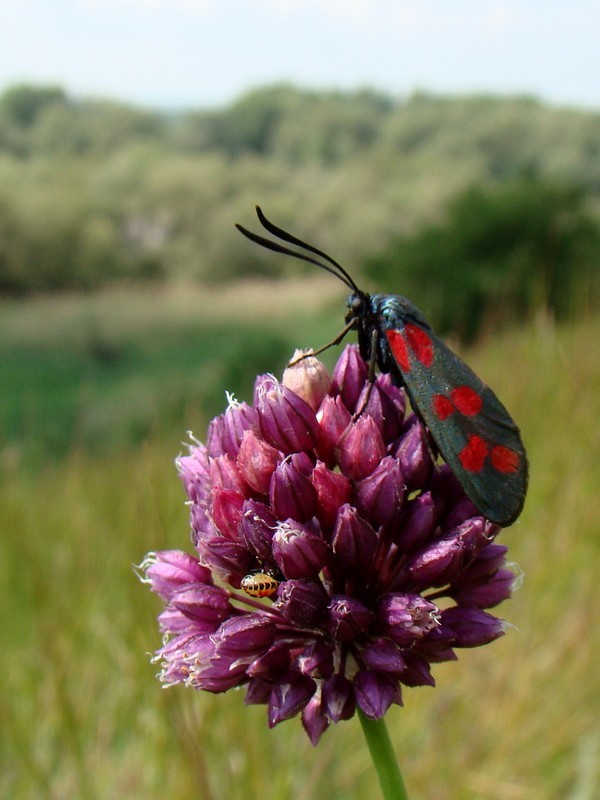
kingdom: Plantae
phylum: Tracheophyta
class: Liliopsida
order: Asparagales
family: Amaryllidaceae
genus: Allium
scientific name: Allium rotundum
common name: Sand leek
